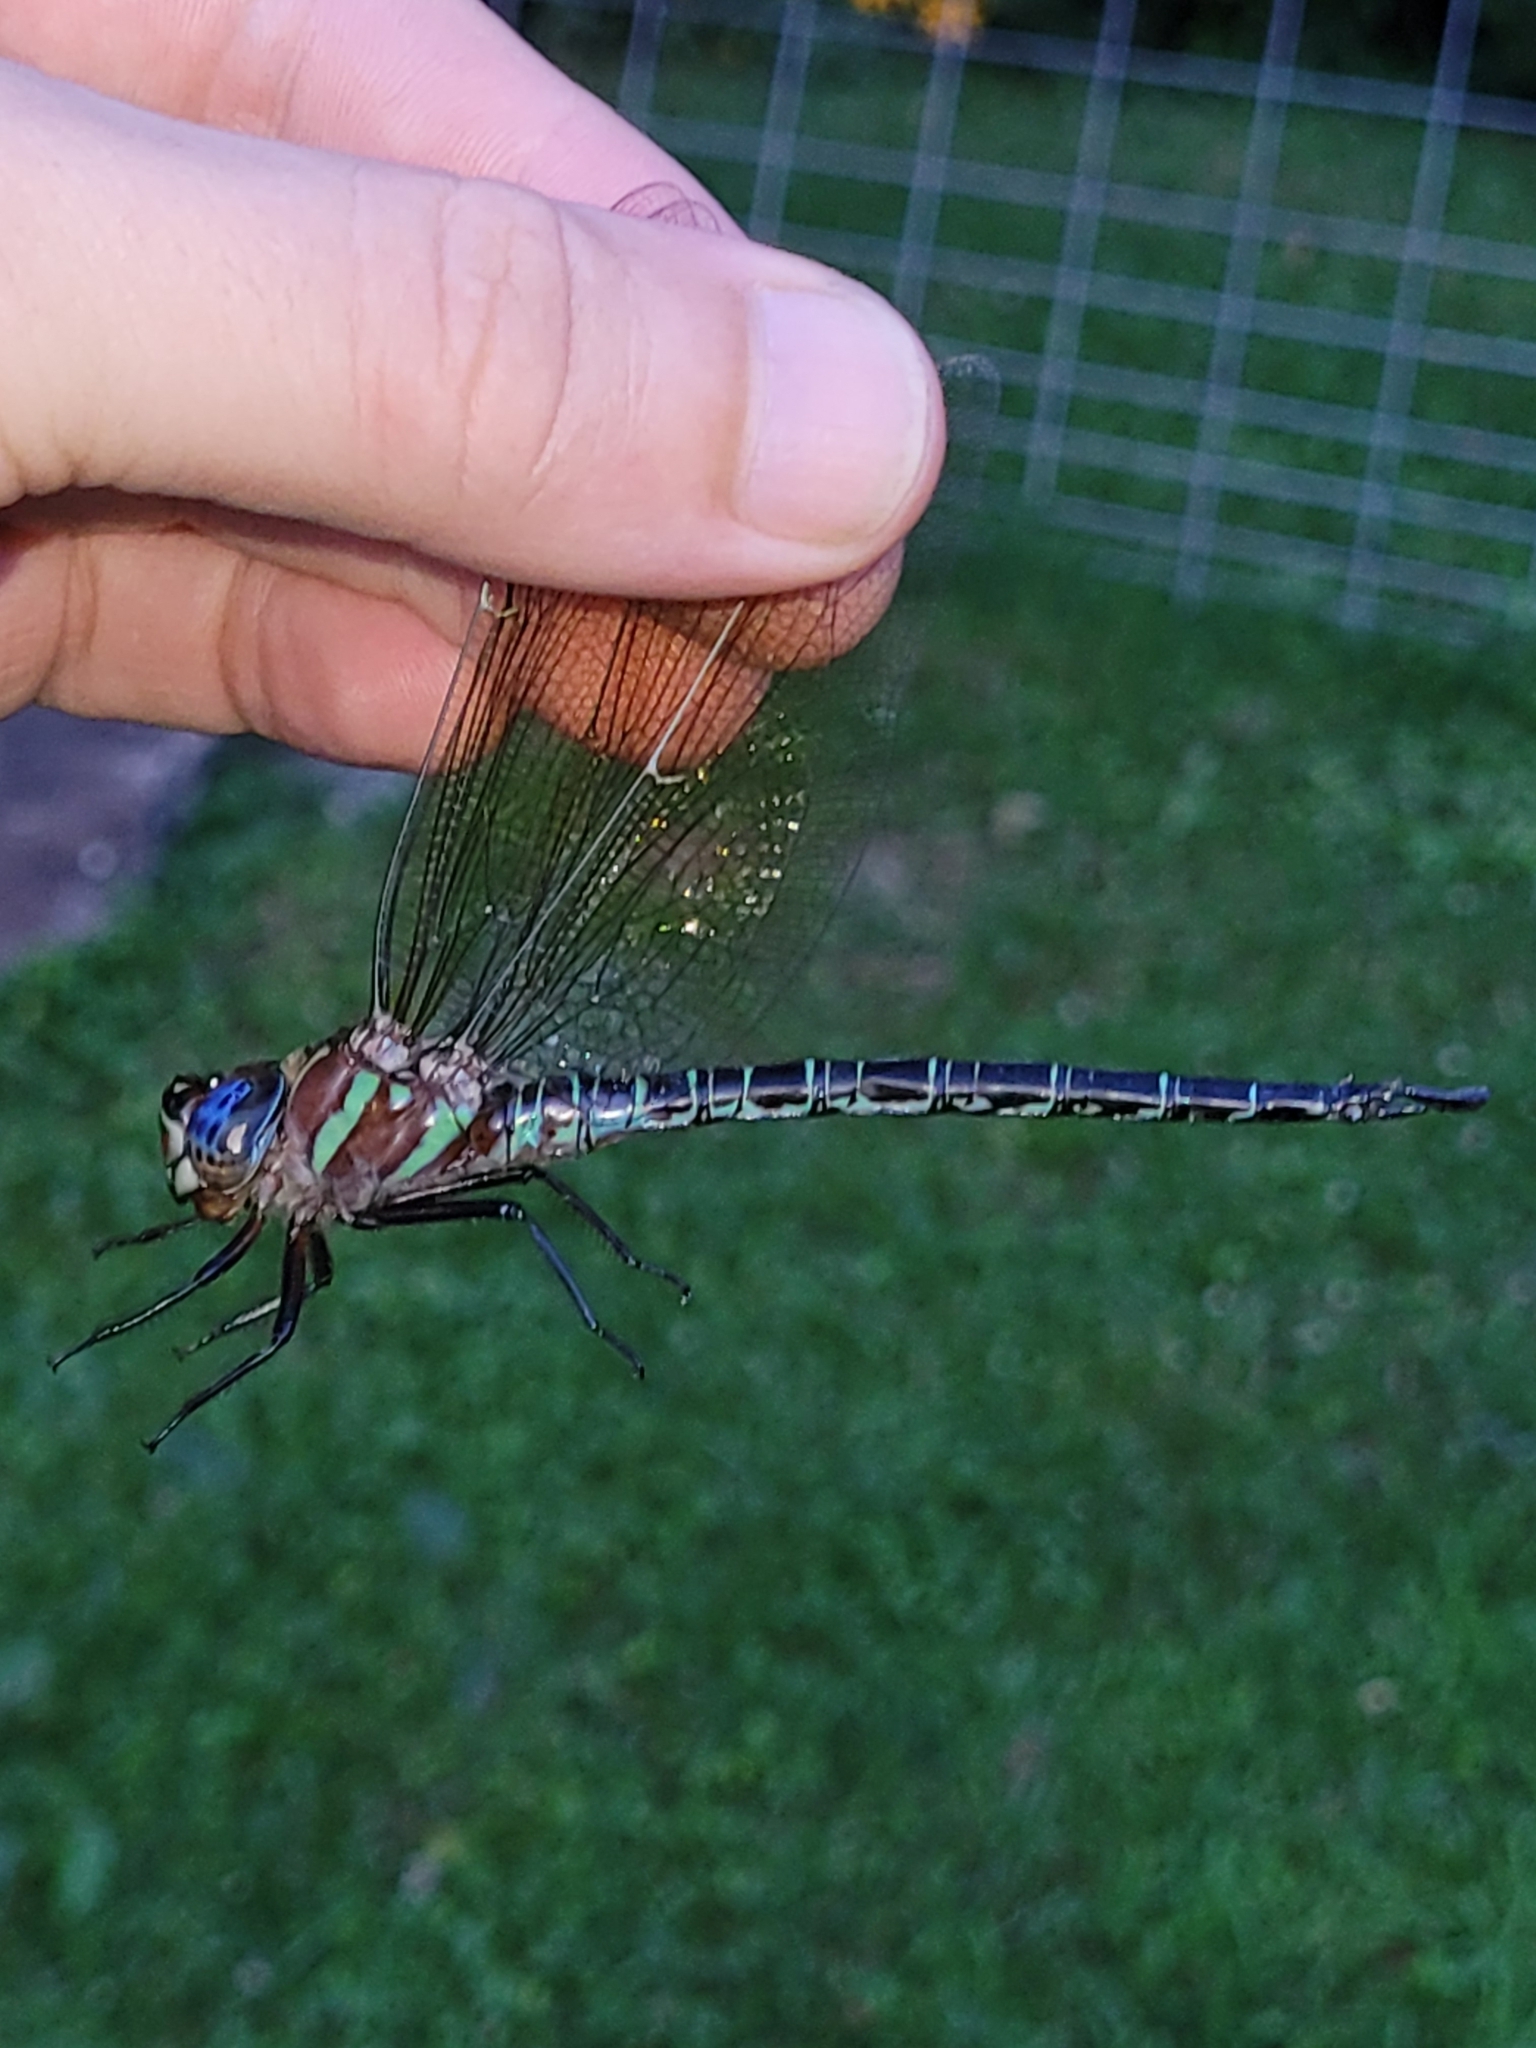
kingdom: Animalia
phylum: Arthropoda
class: Insecta
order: Odonata
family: Aeshnidae
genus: Epiaeschna
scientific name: Epiaeschna heros
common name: Swamp darner
